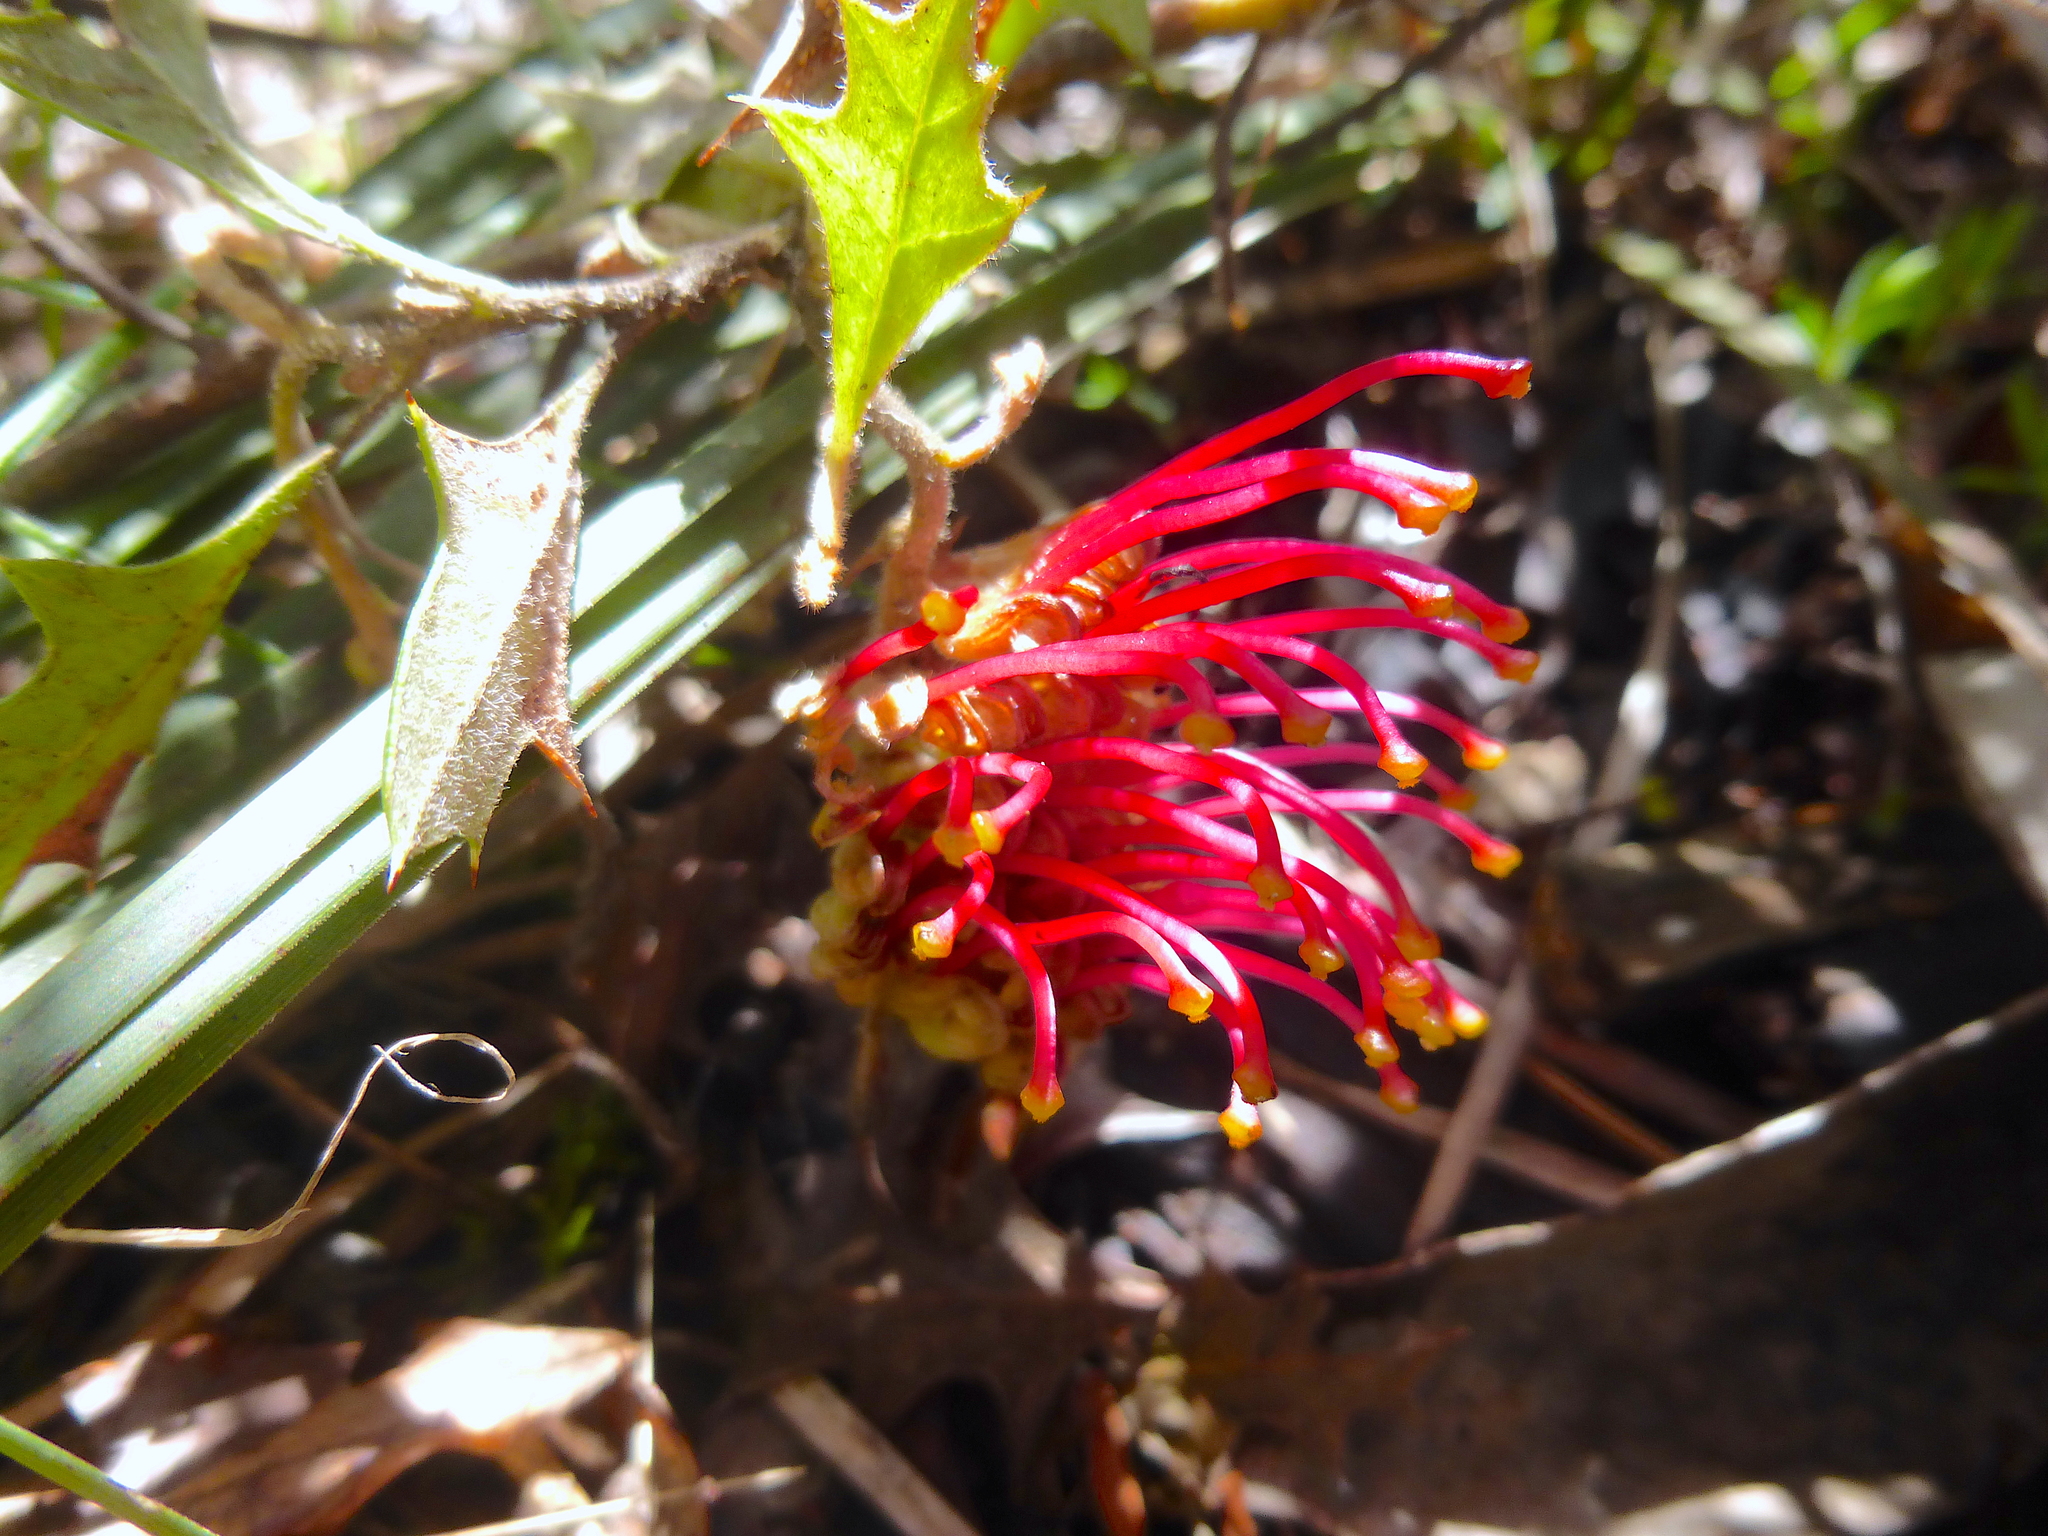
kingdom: Plantae
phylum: Tracheophyta
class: Magnoliopsida
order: Proteales
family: Proteaceae
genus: Grevillea
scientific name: Grevillea aquifolium
